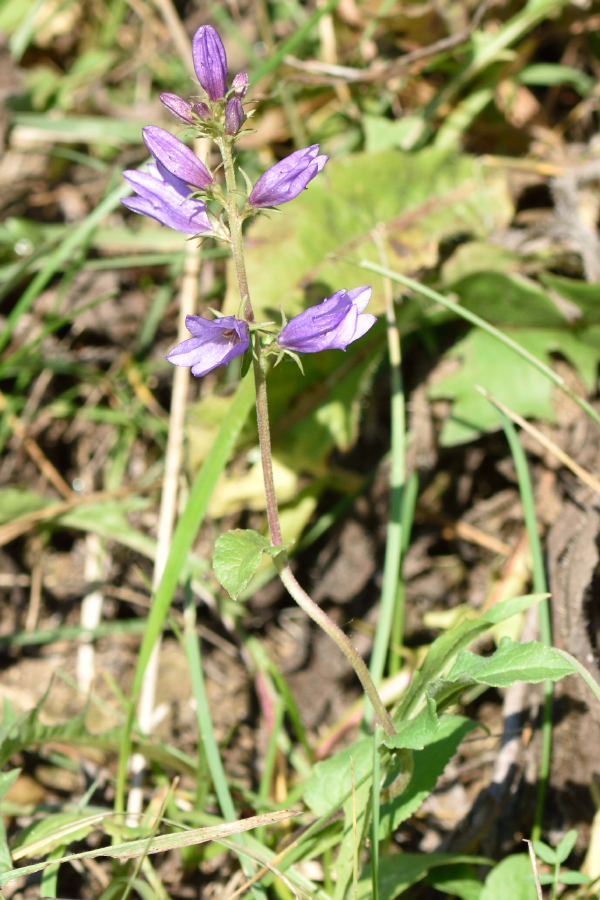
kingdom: Plantae
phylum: Tracheophyta
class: Magnoliopsida
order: Asterales
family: Campanulaceae
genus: Campanula
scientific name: Campanula bononiensis
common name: Pale bellflower
